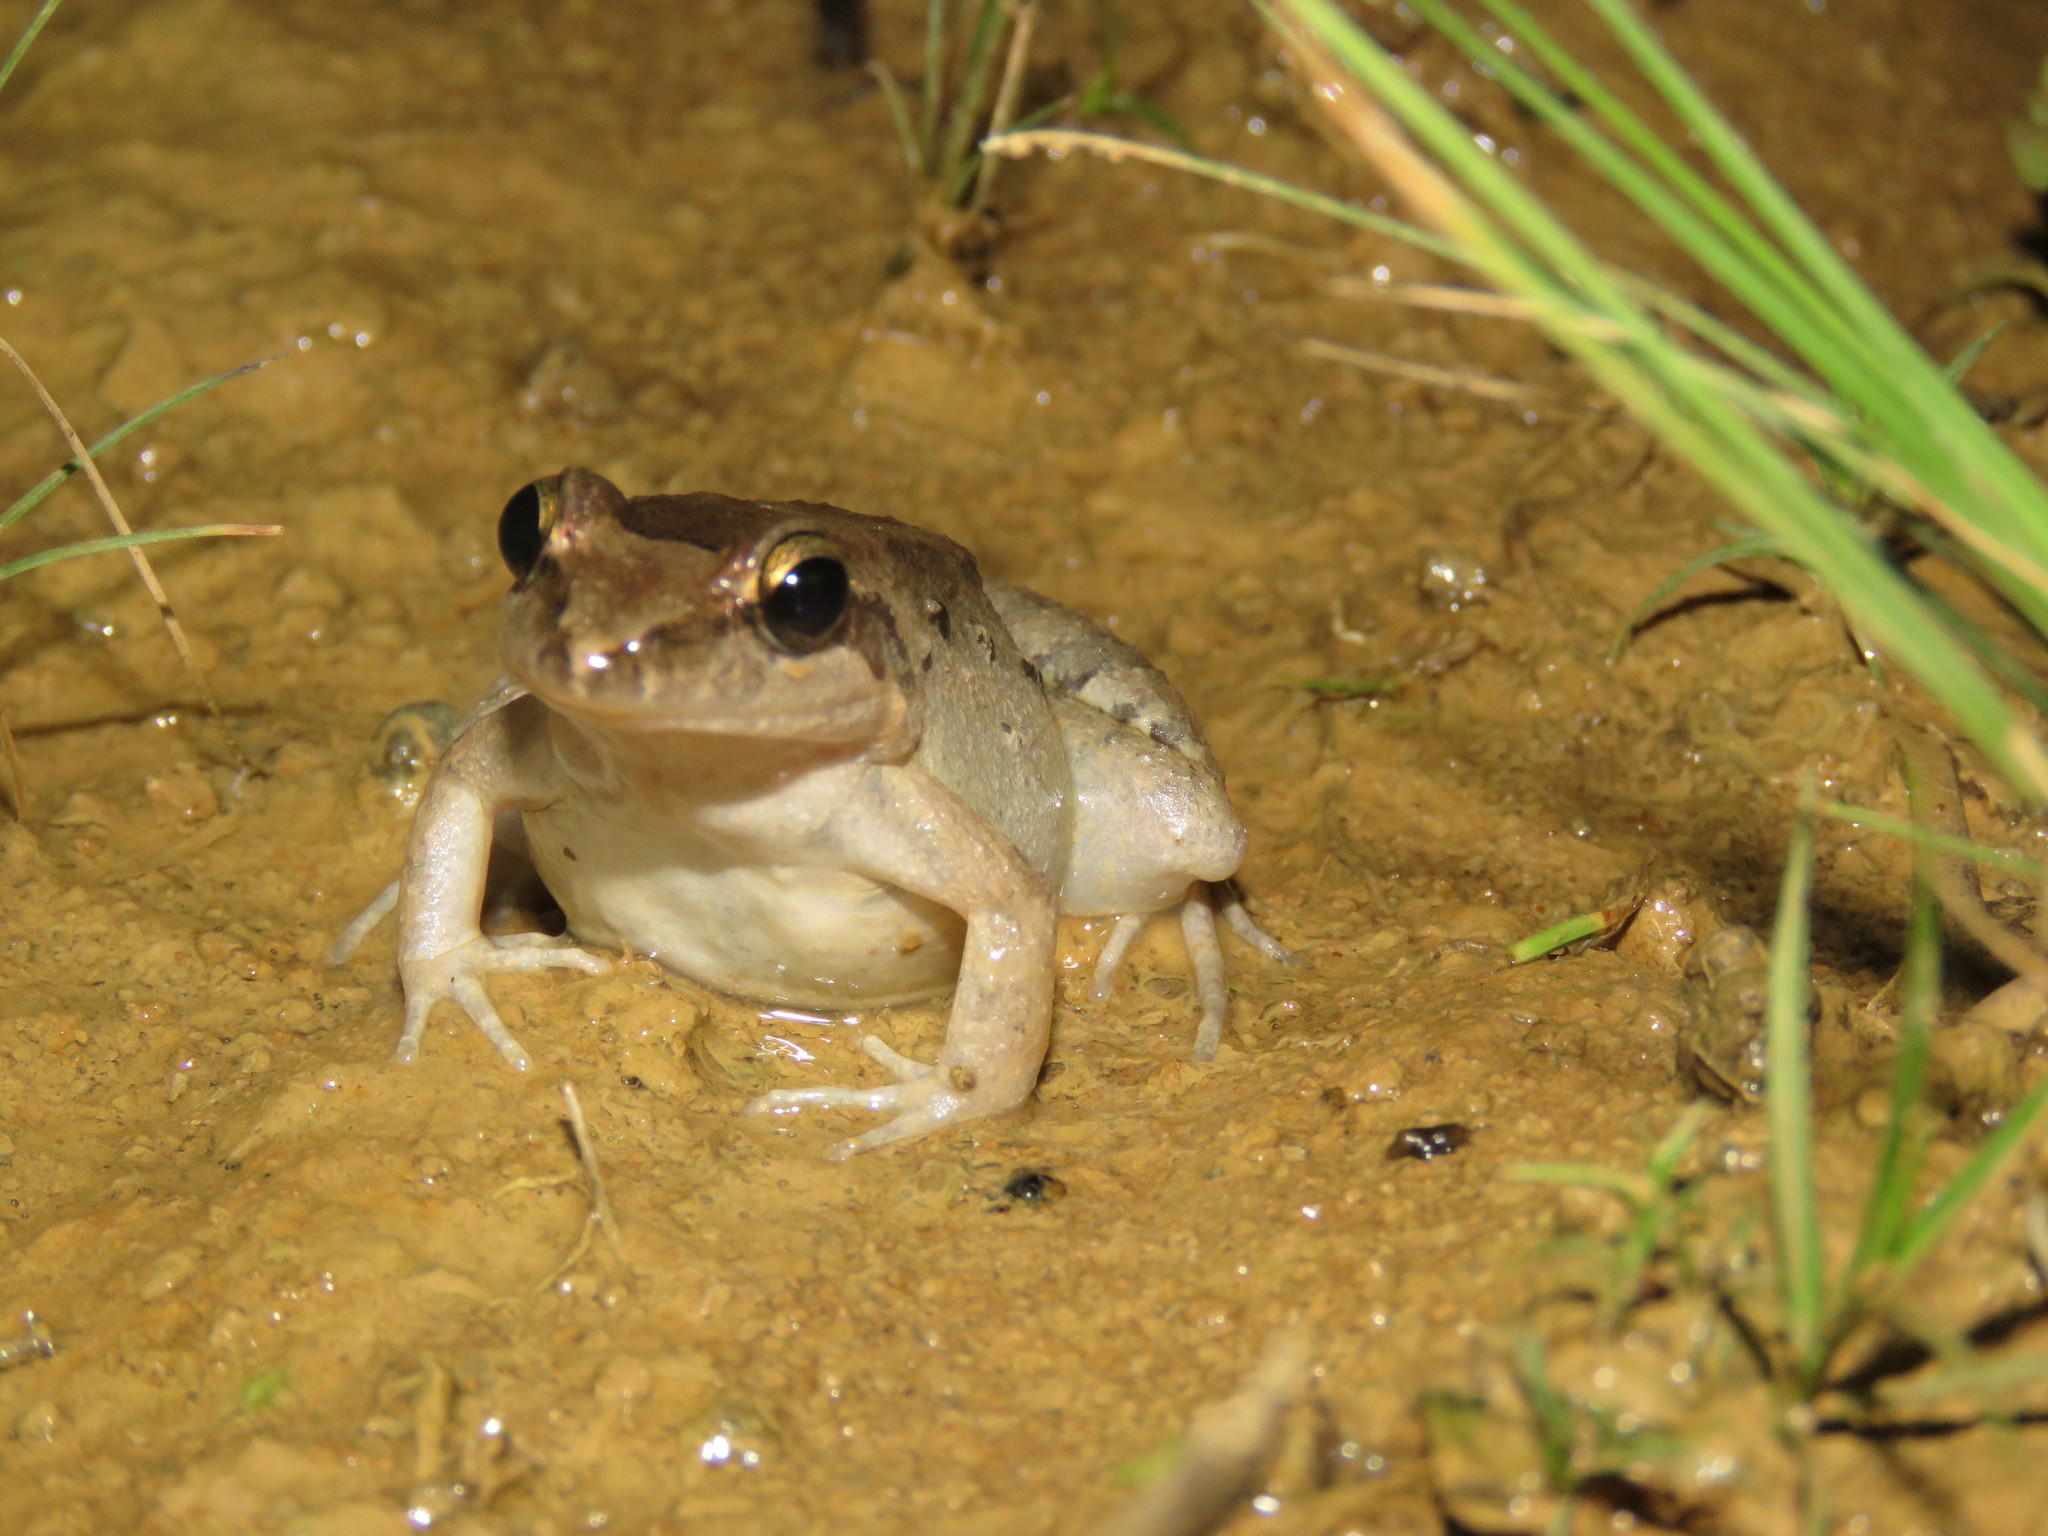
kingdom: Animalia
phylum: Chordata
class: Amphibia
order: Anura
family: Leptodactylidae
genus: Leptodactylus
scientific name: Leptodactylus petersii
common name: Peters' thin-toed frog
